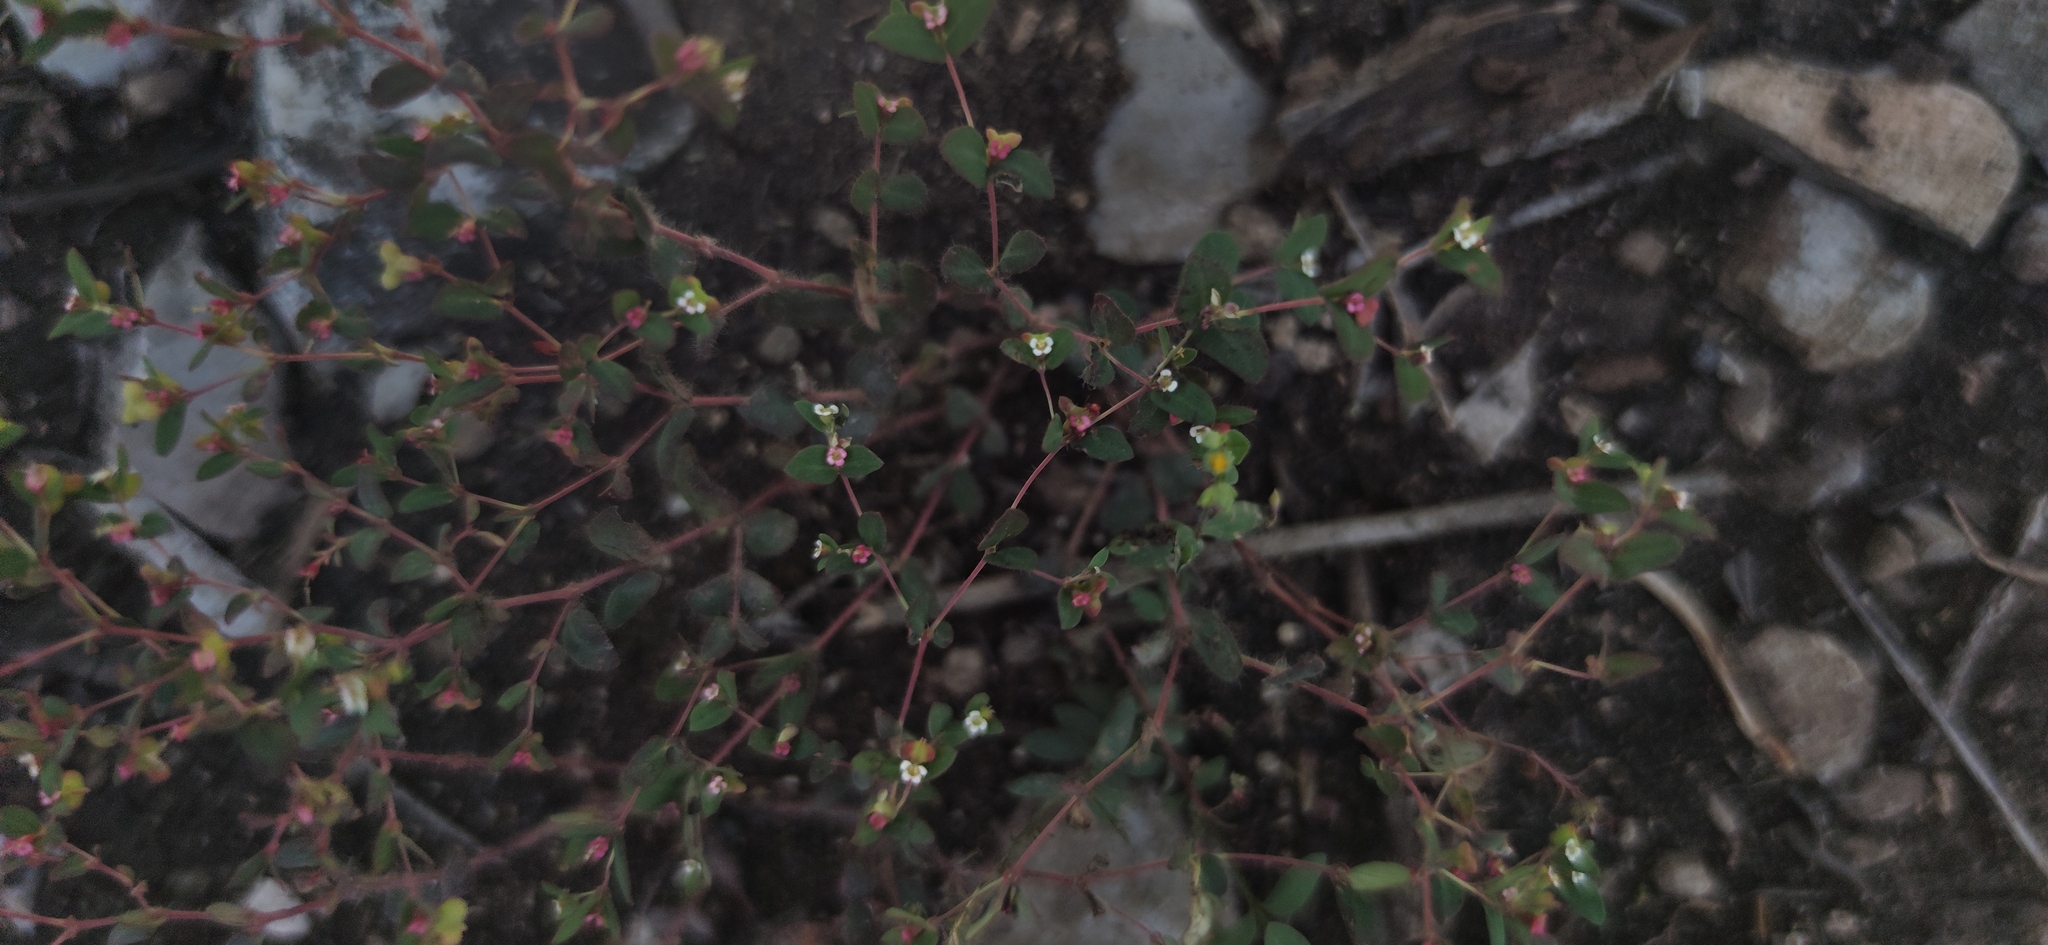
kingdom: Plantae
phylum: Tracheophyta
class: Magnoliopsida
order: Malpighiales
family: Euphorbiaceae
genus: Euphorbia
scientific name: Euphorbia villifera
